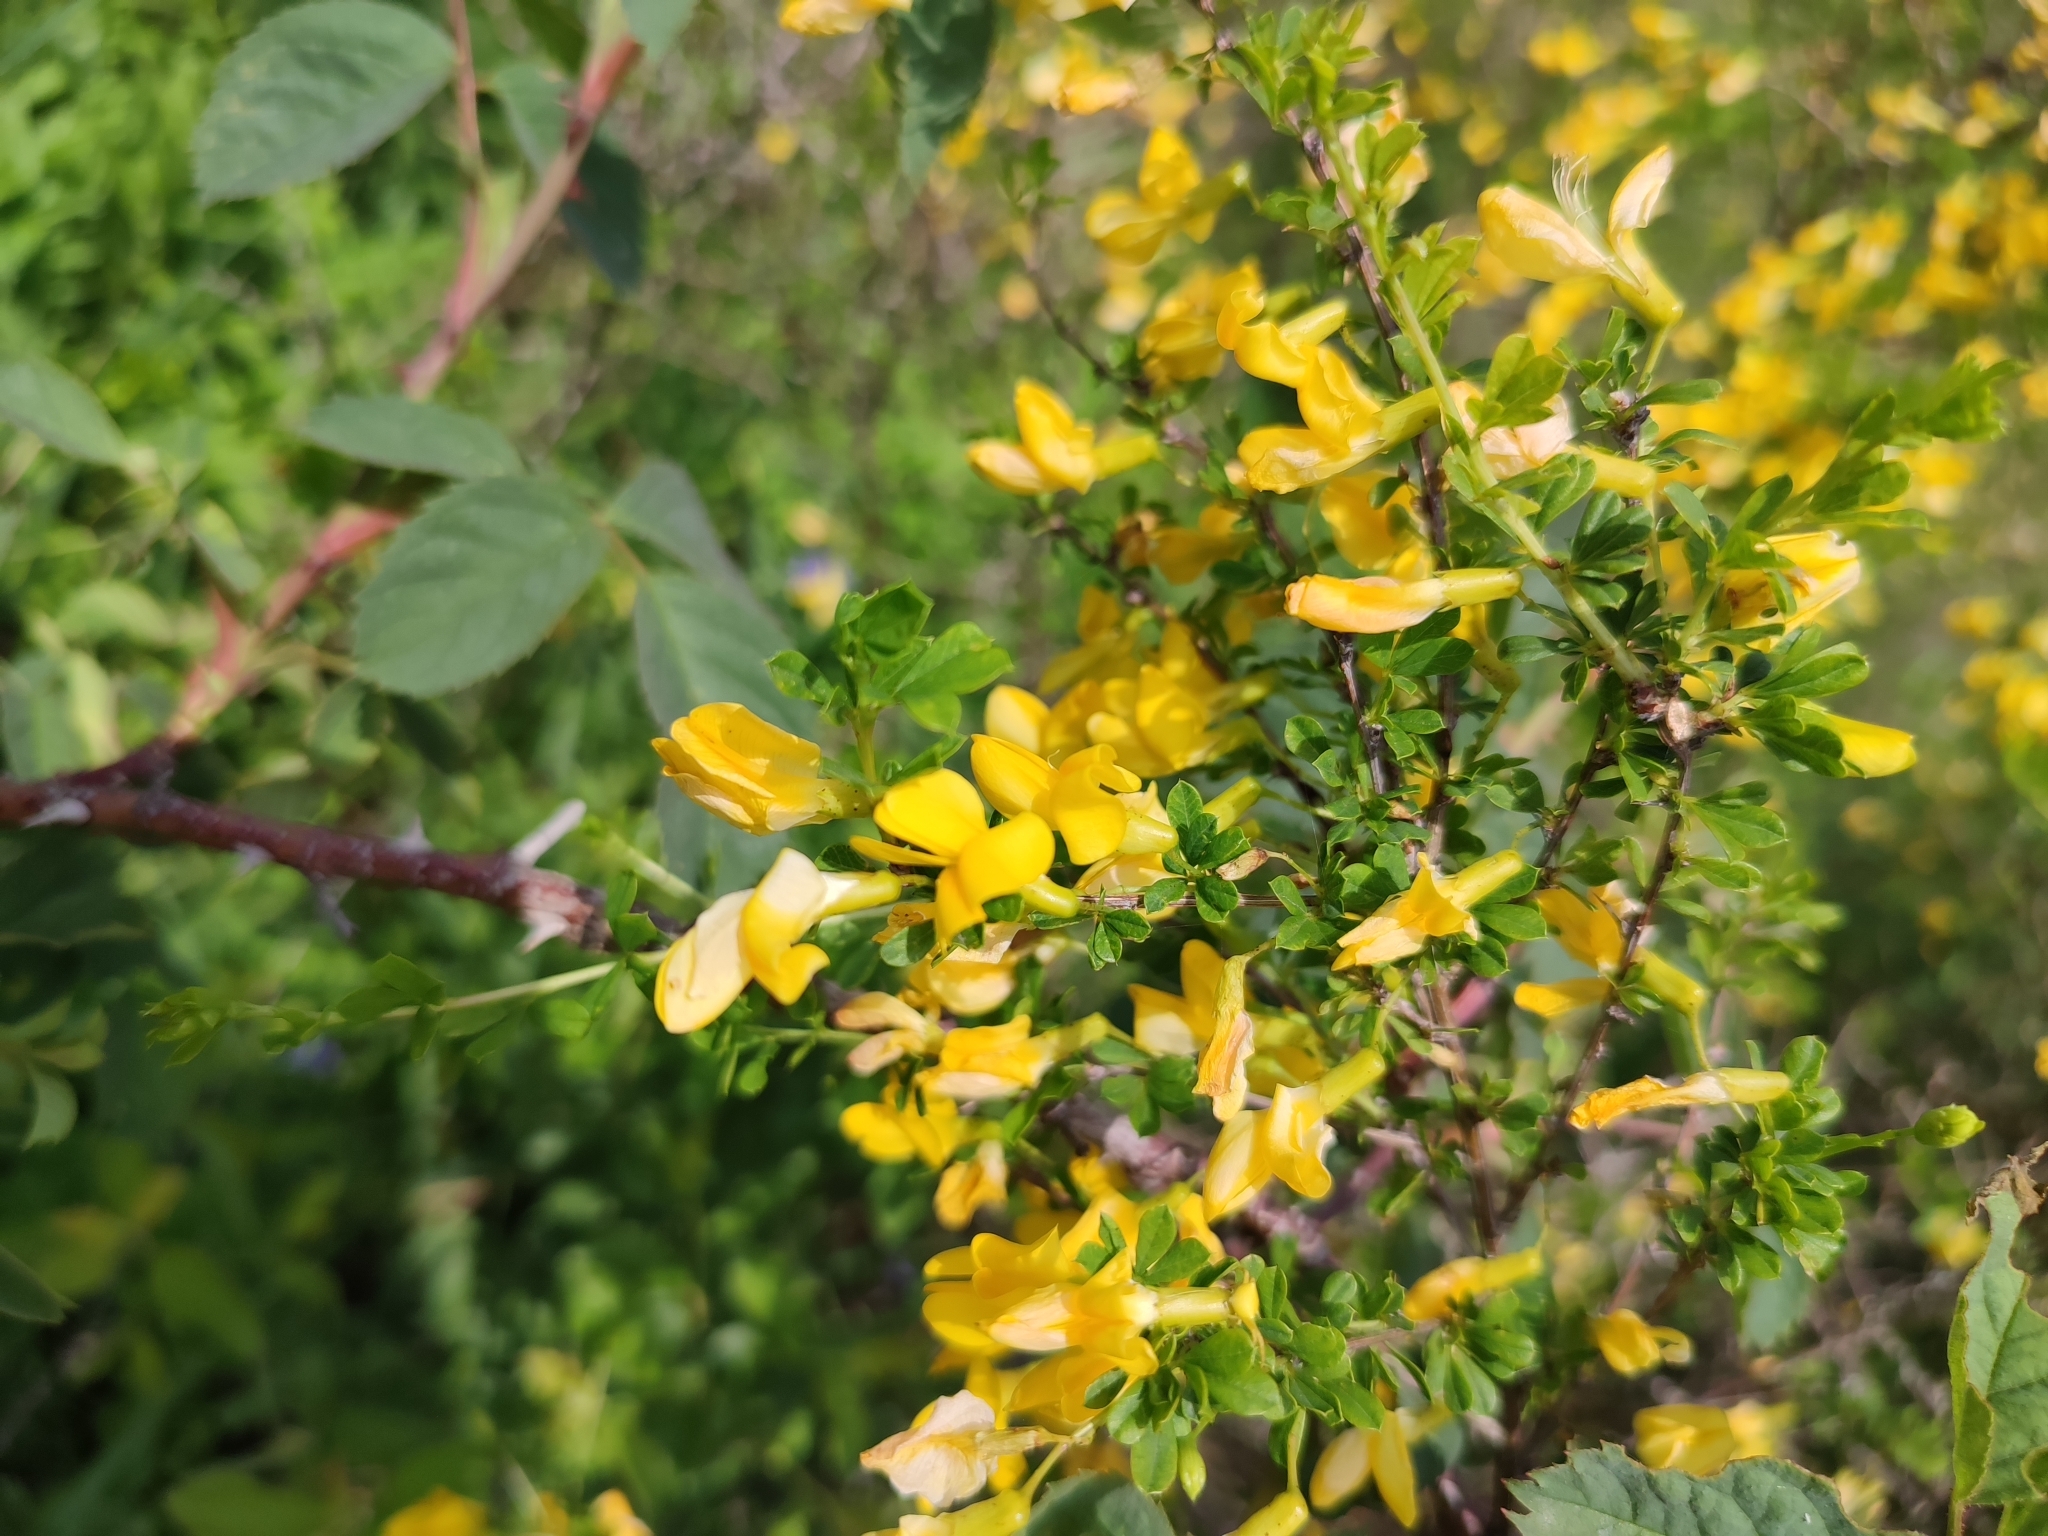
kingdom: Plantae
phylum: Tracheophyta
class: Magnoliopsida
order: Fabales
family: Fabaceae
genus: Caragana
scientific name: Caragana frutex
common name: Russian peashrub
